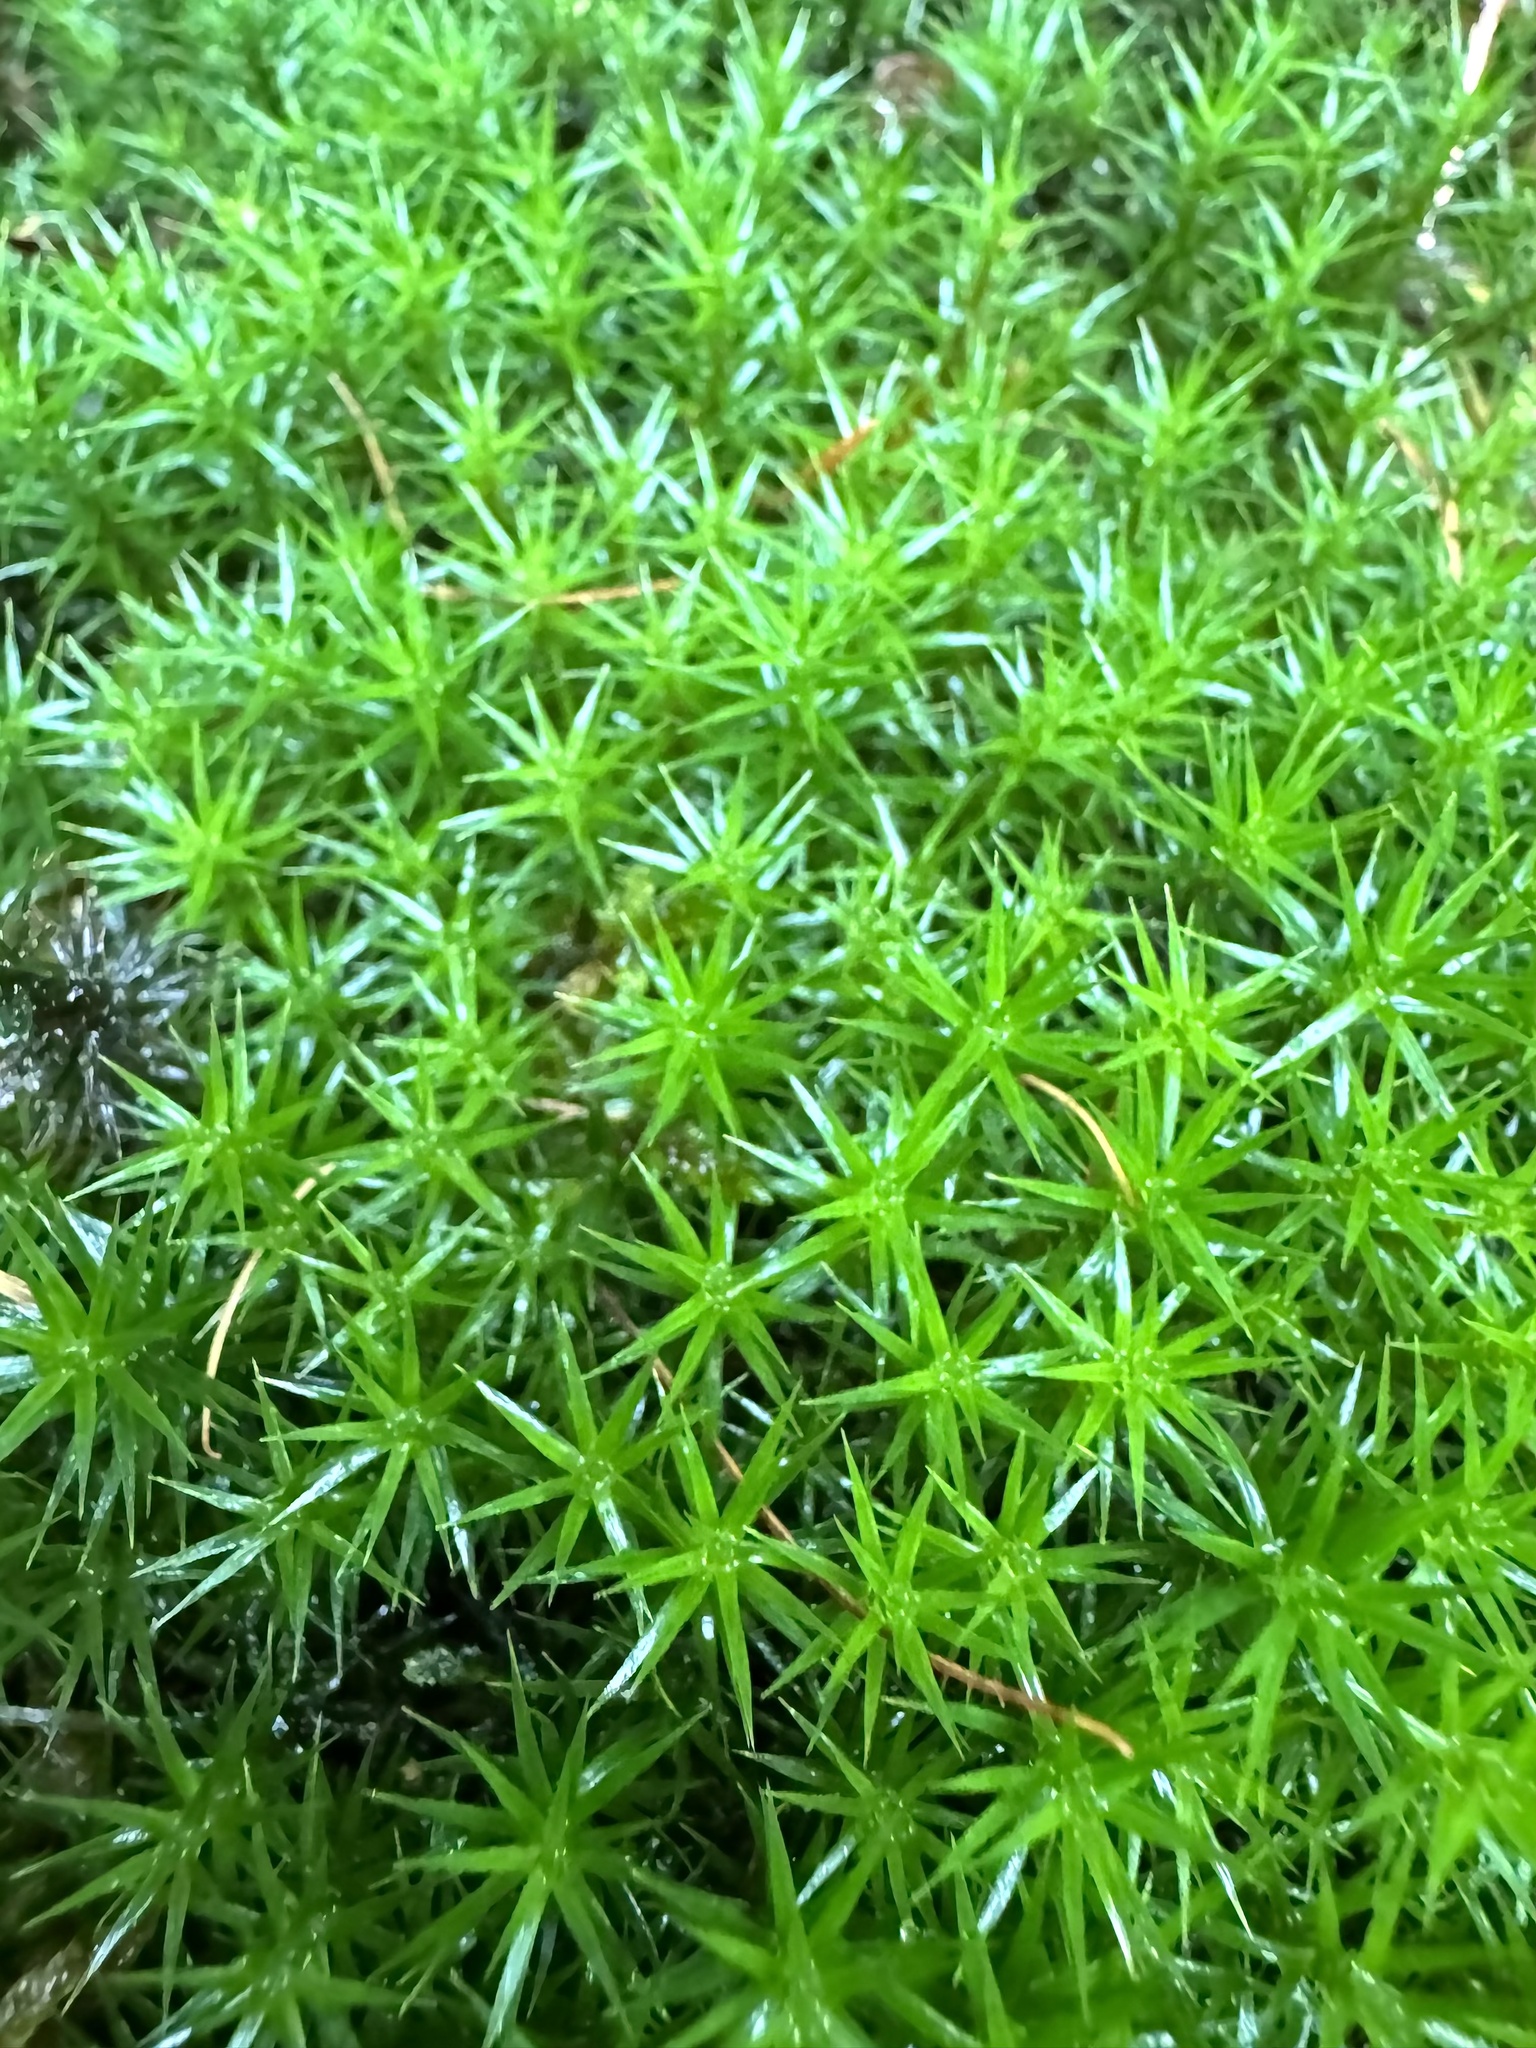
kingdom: Plantae
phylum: Bryophyta
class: Polytrichopsida
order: Polytrichales
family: Polytrichaceae
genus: Polytrichum
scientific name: Polytrichum formosum
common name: Bank haircap moss
